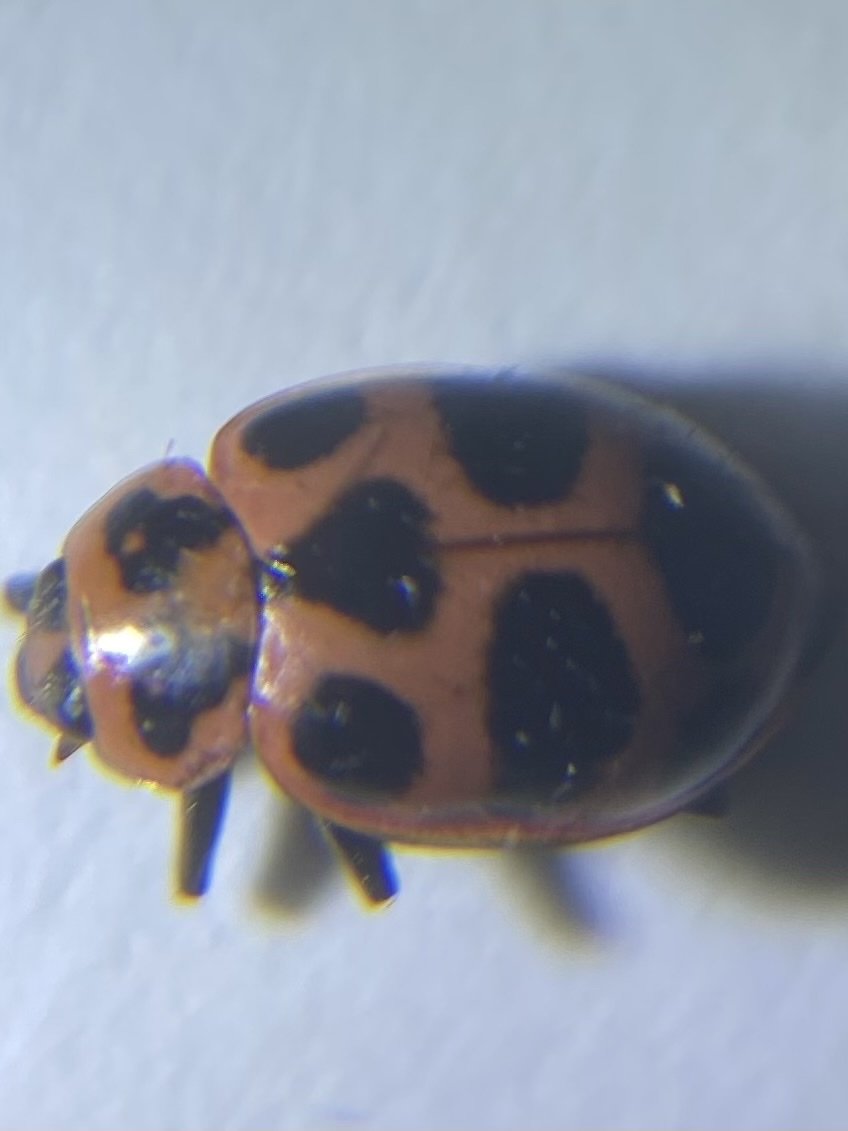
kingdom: Animalia
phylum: Arthropoda
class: Insecta
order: Coleoptera
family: Coccinellidae
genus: Coleomegilla
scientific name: Coleomegilla maculata
